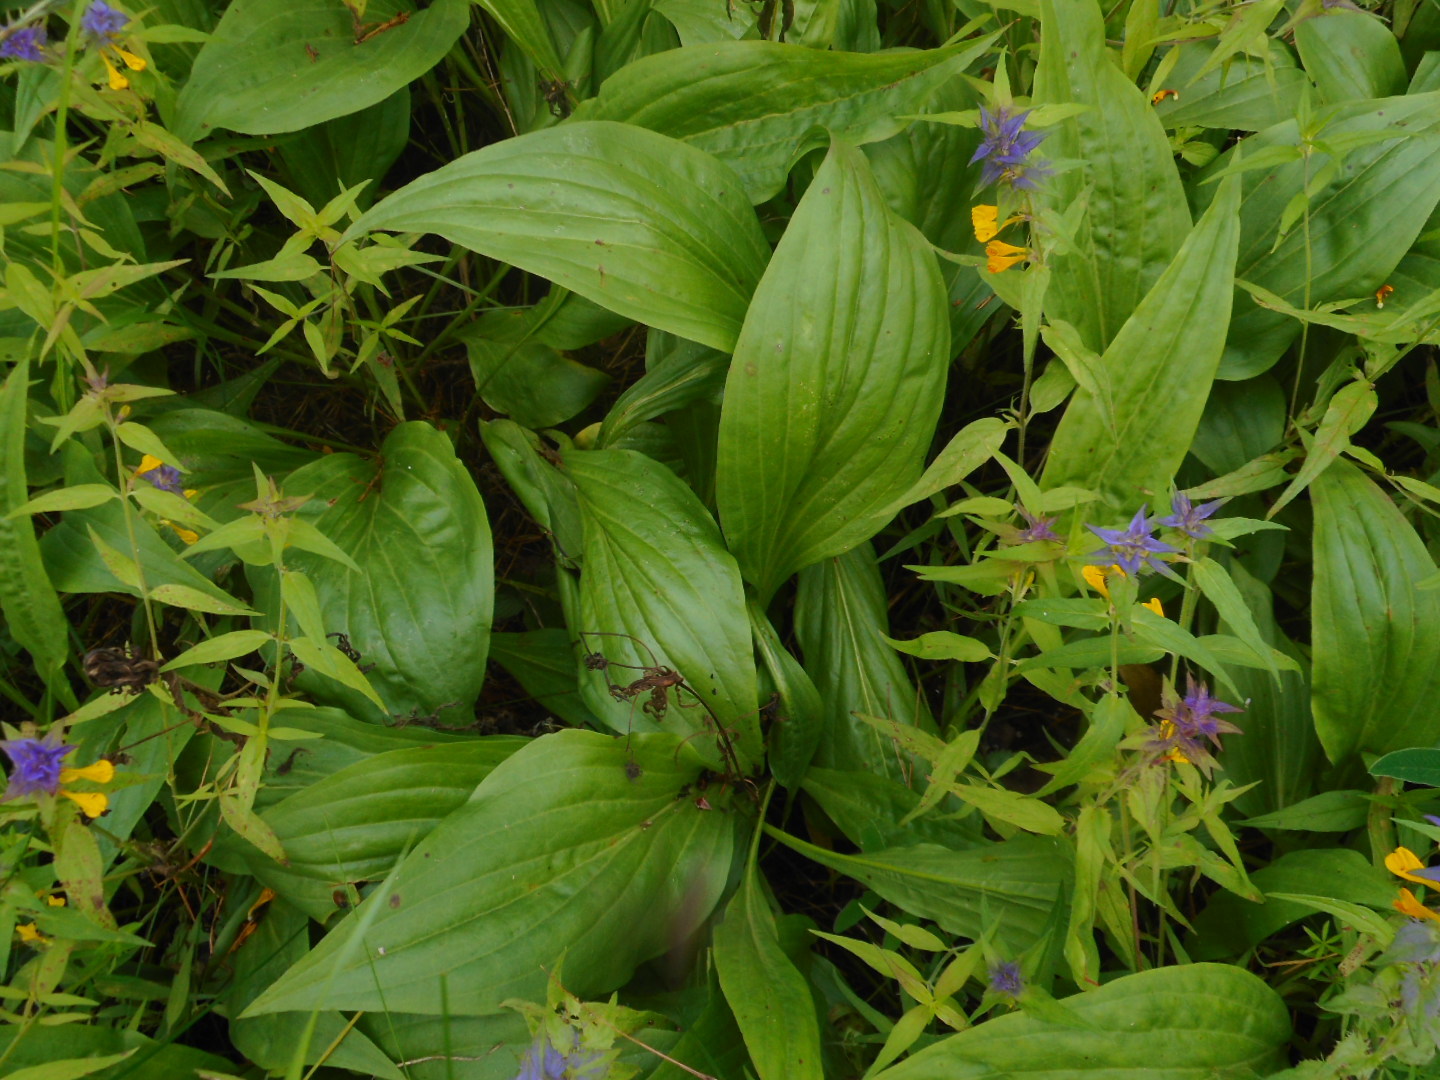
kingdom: Plantae
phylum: Tracheophyta
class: Magnoliopsida
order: Asterales
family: Asteraceae
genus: Scorzonera
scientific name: Scorzonera humilis
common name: Viper's-grass
